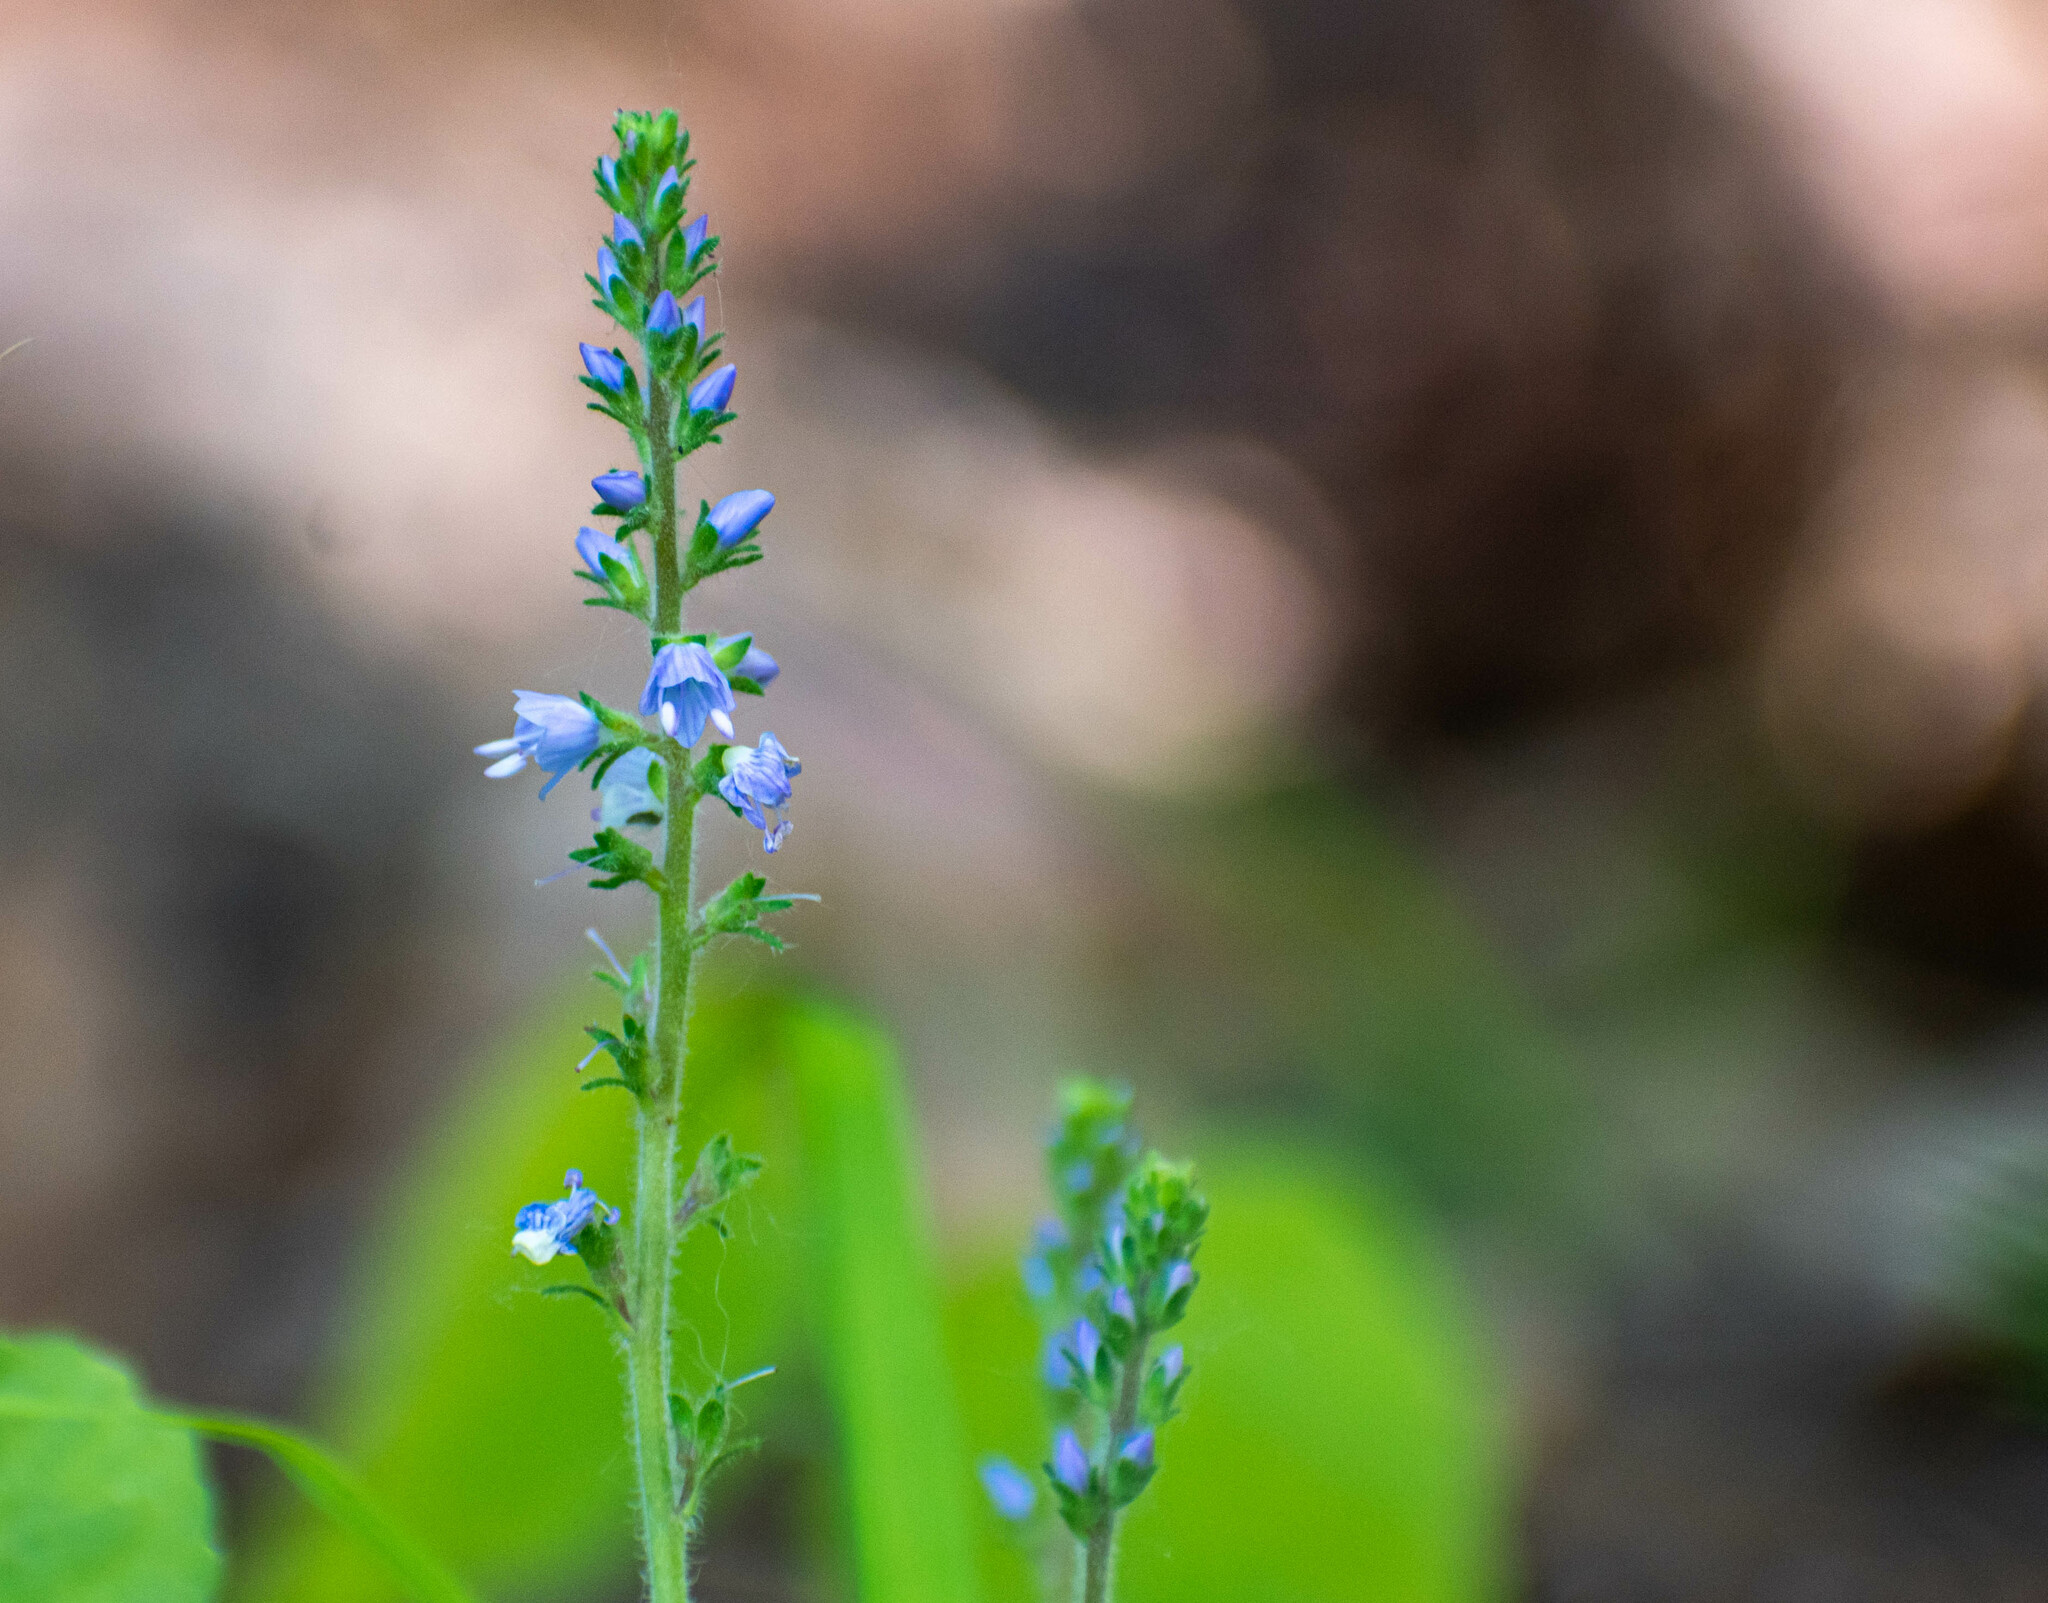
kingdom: Plantae
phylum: Tracheophyta
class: Magnoliopsida
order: Lamiales
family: Plantaginaceae
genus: Veronica
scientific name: Veronica officinalis
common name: Common speedwell
